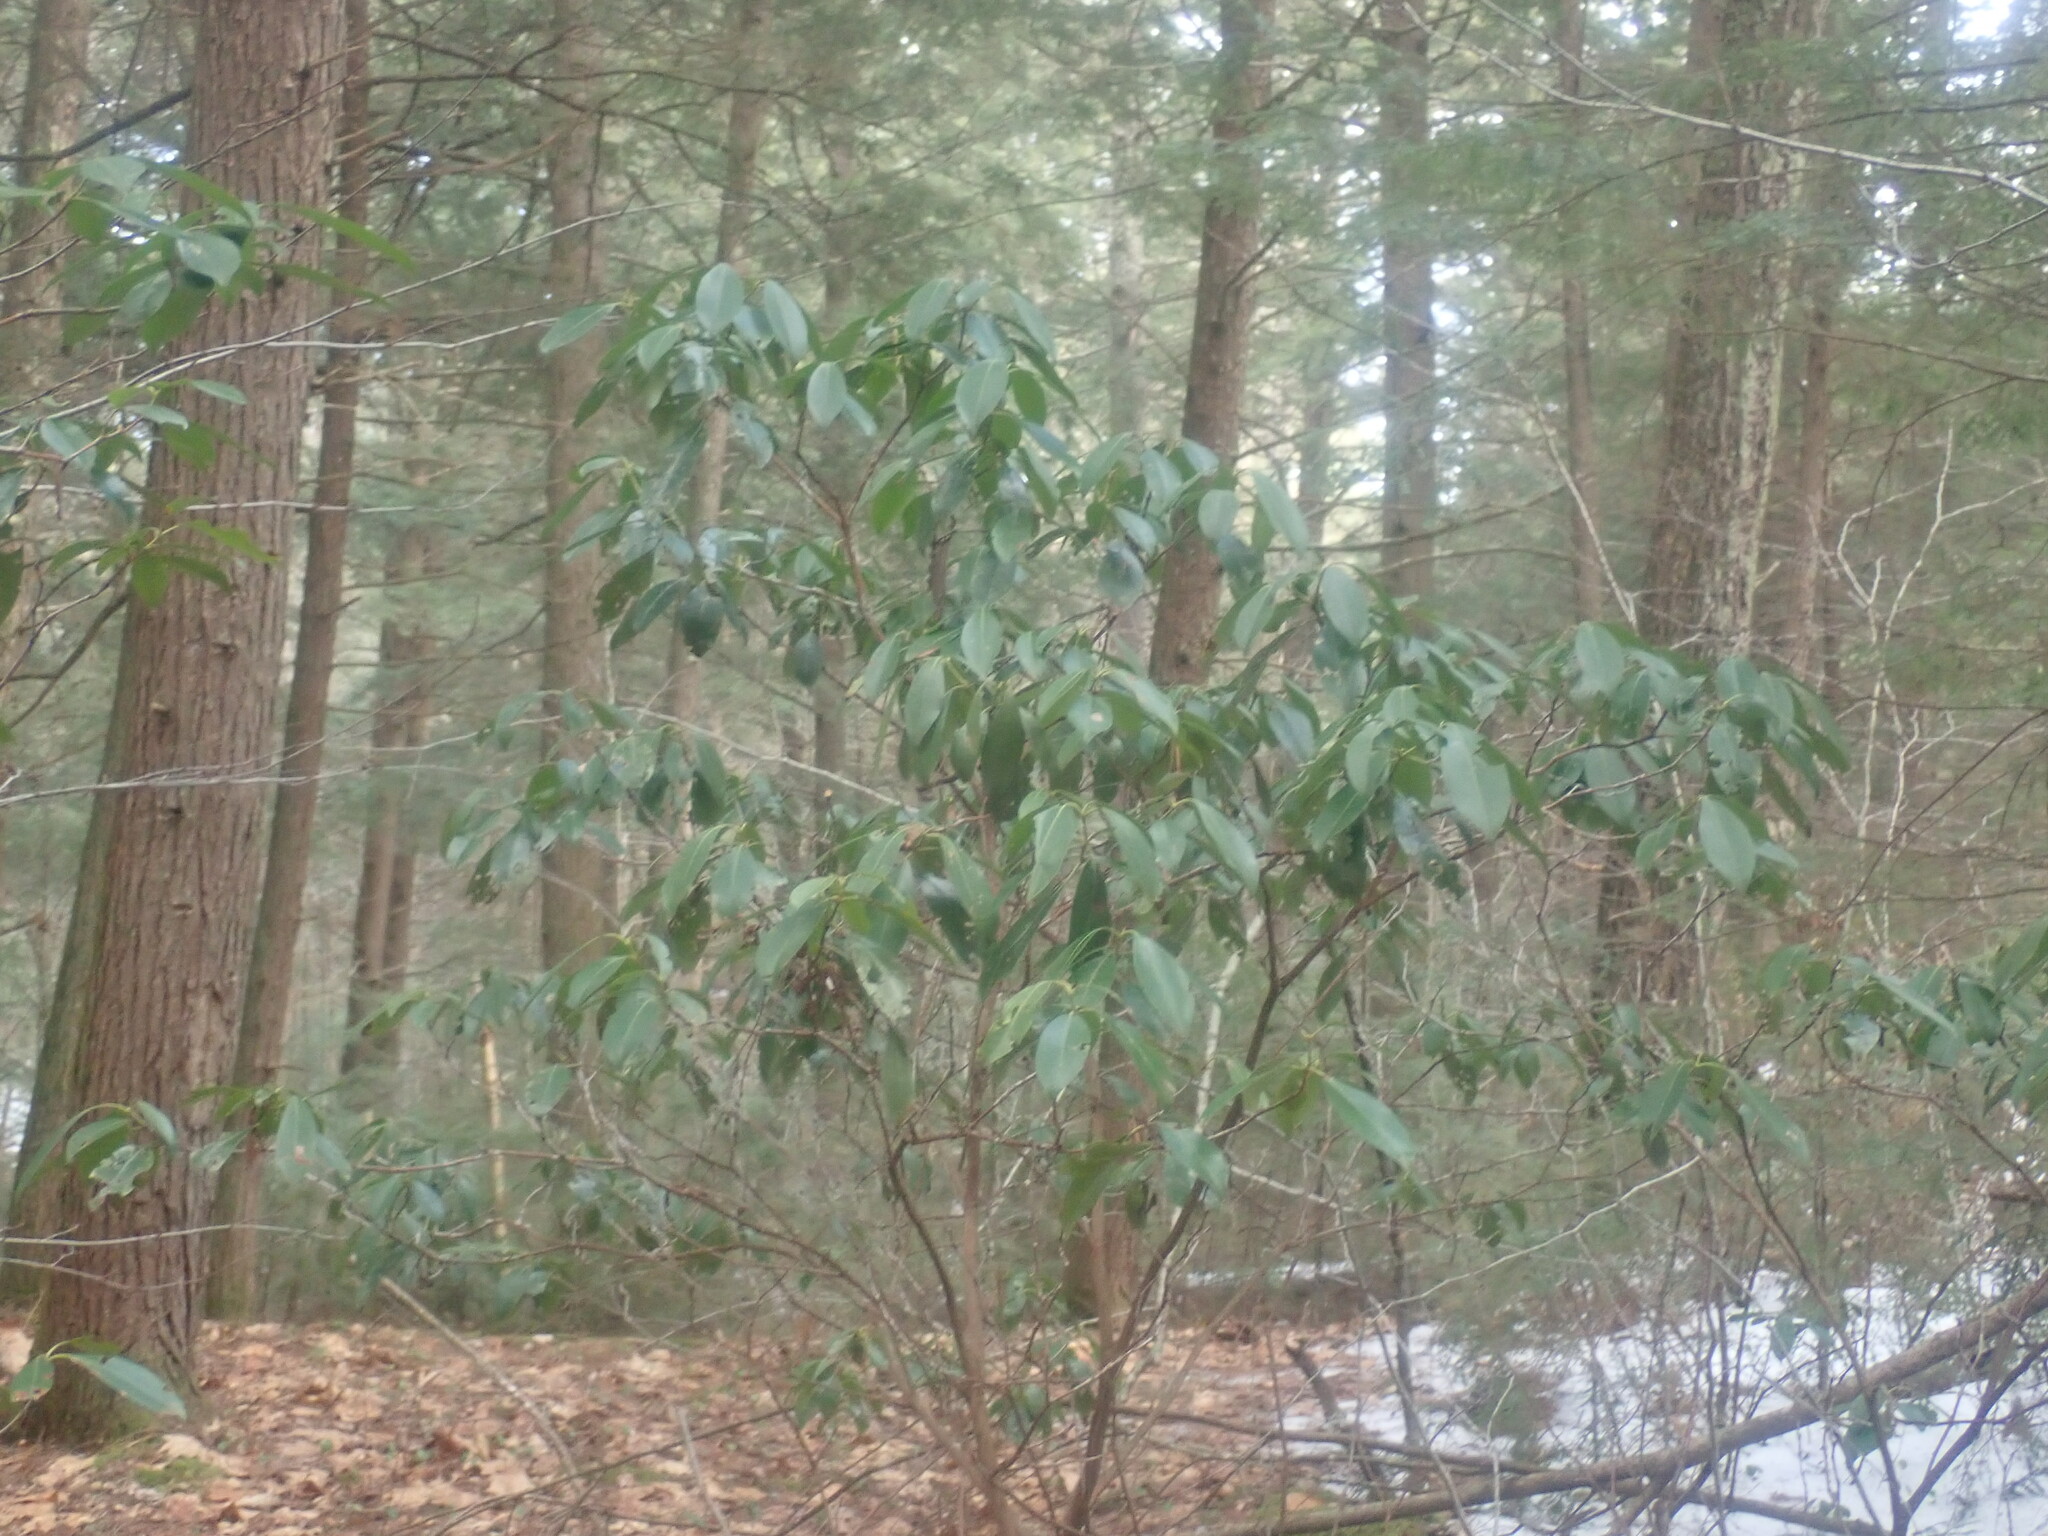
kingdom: Plantae
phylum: Tracheophyta
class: Magnoliopsida
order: Ericales
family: Ericaceae
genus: Kalmia
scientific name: Kalmia latifolia
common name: Mountain-laurel
